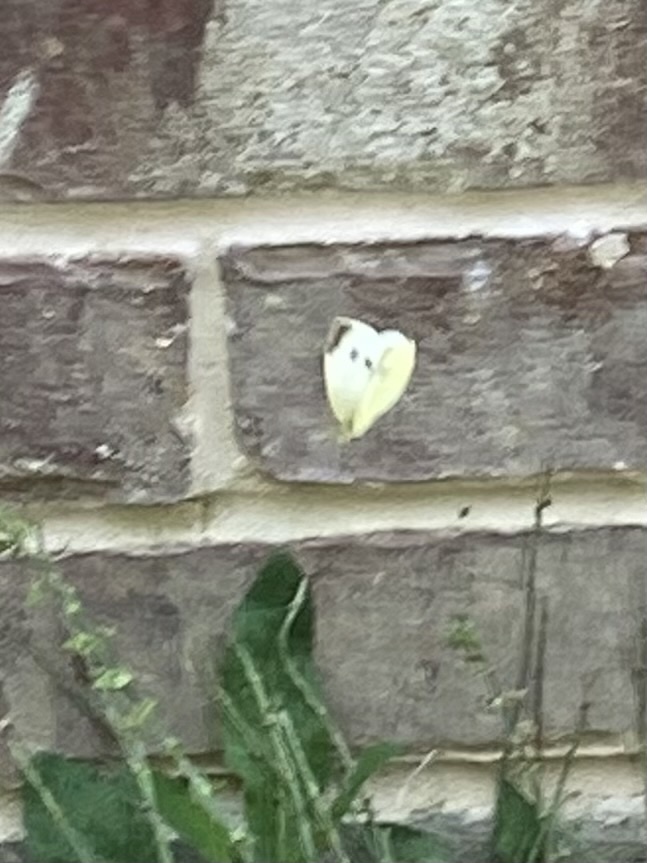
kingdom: Animalia
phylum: Arthropoda
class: Insecta
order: Lepidoptera
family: Pieridae
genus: Pieris
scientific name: Pieris rapae
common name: Small white
